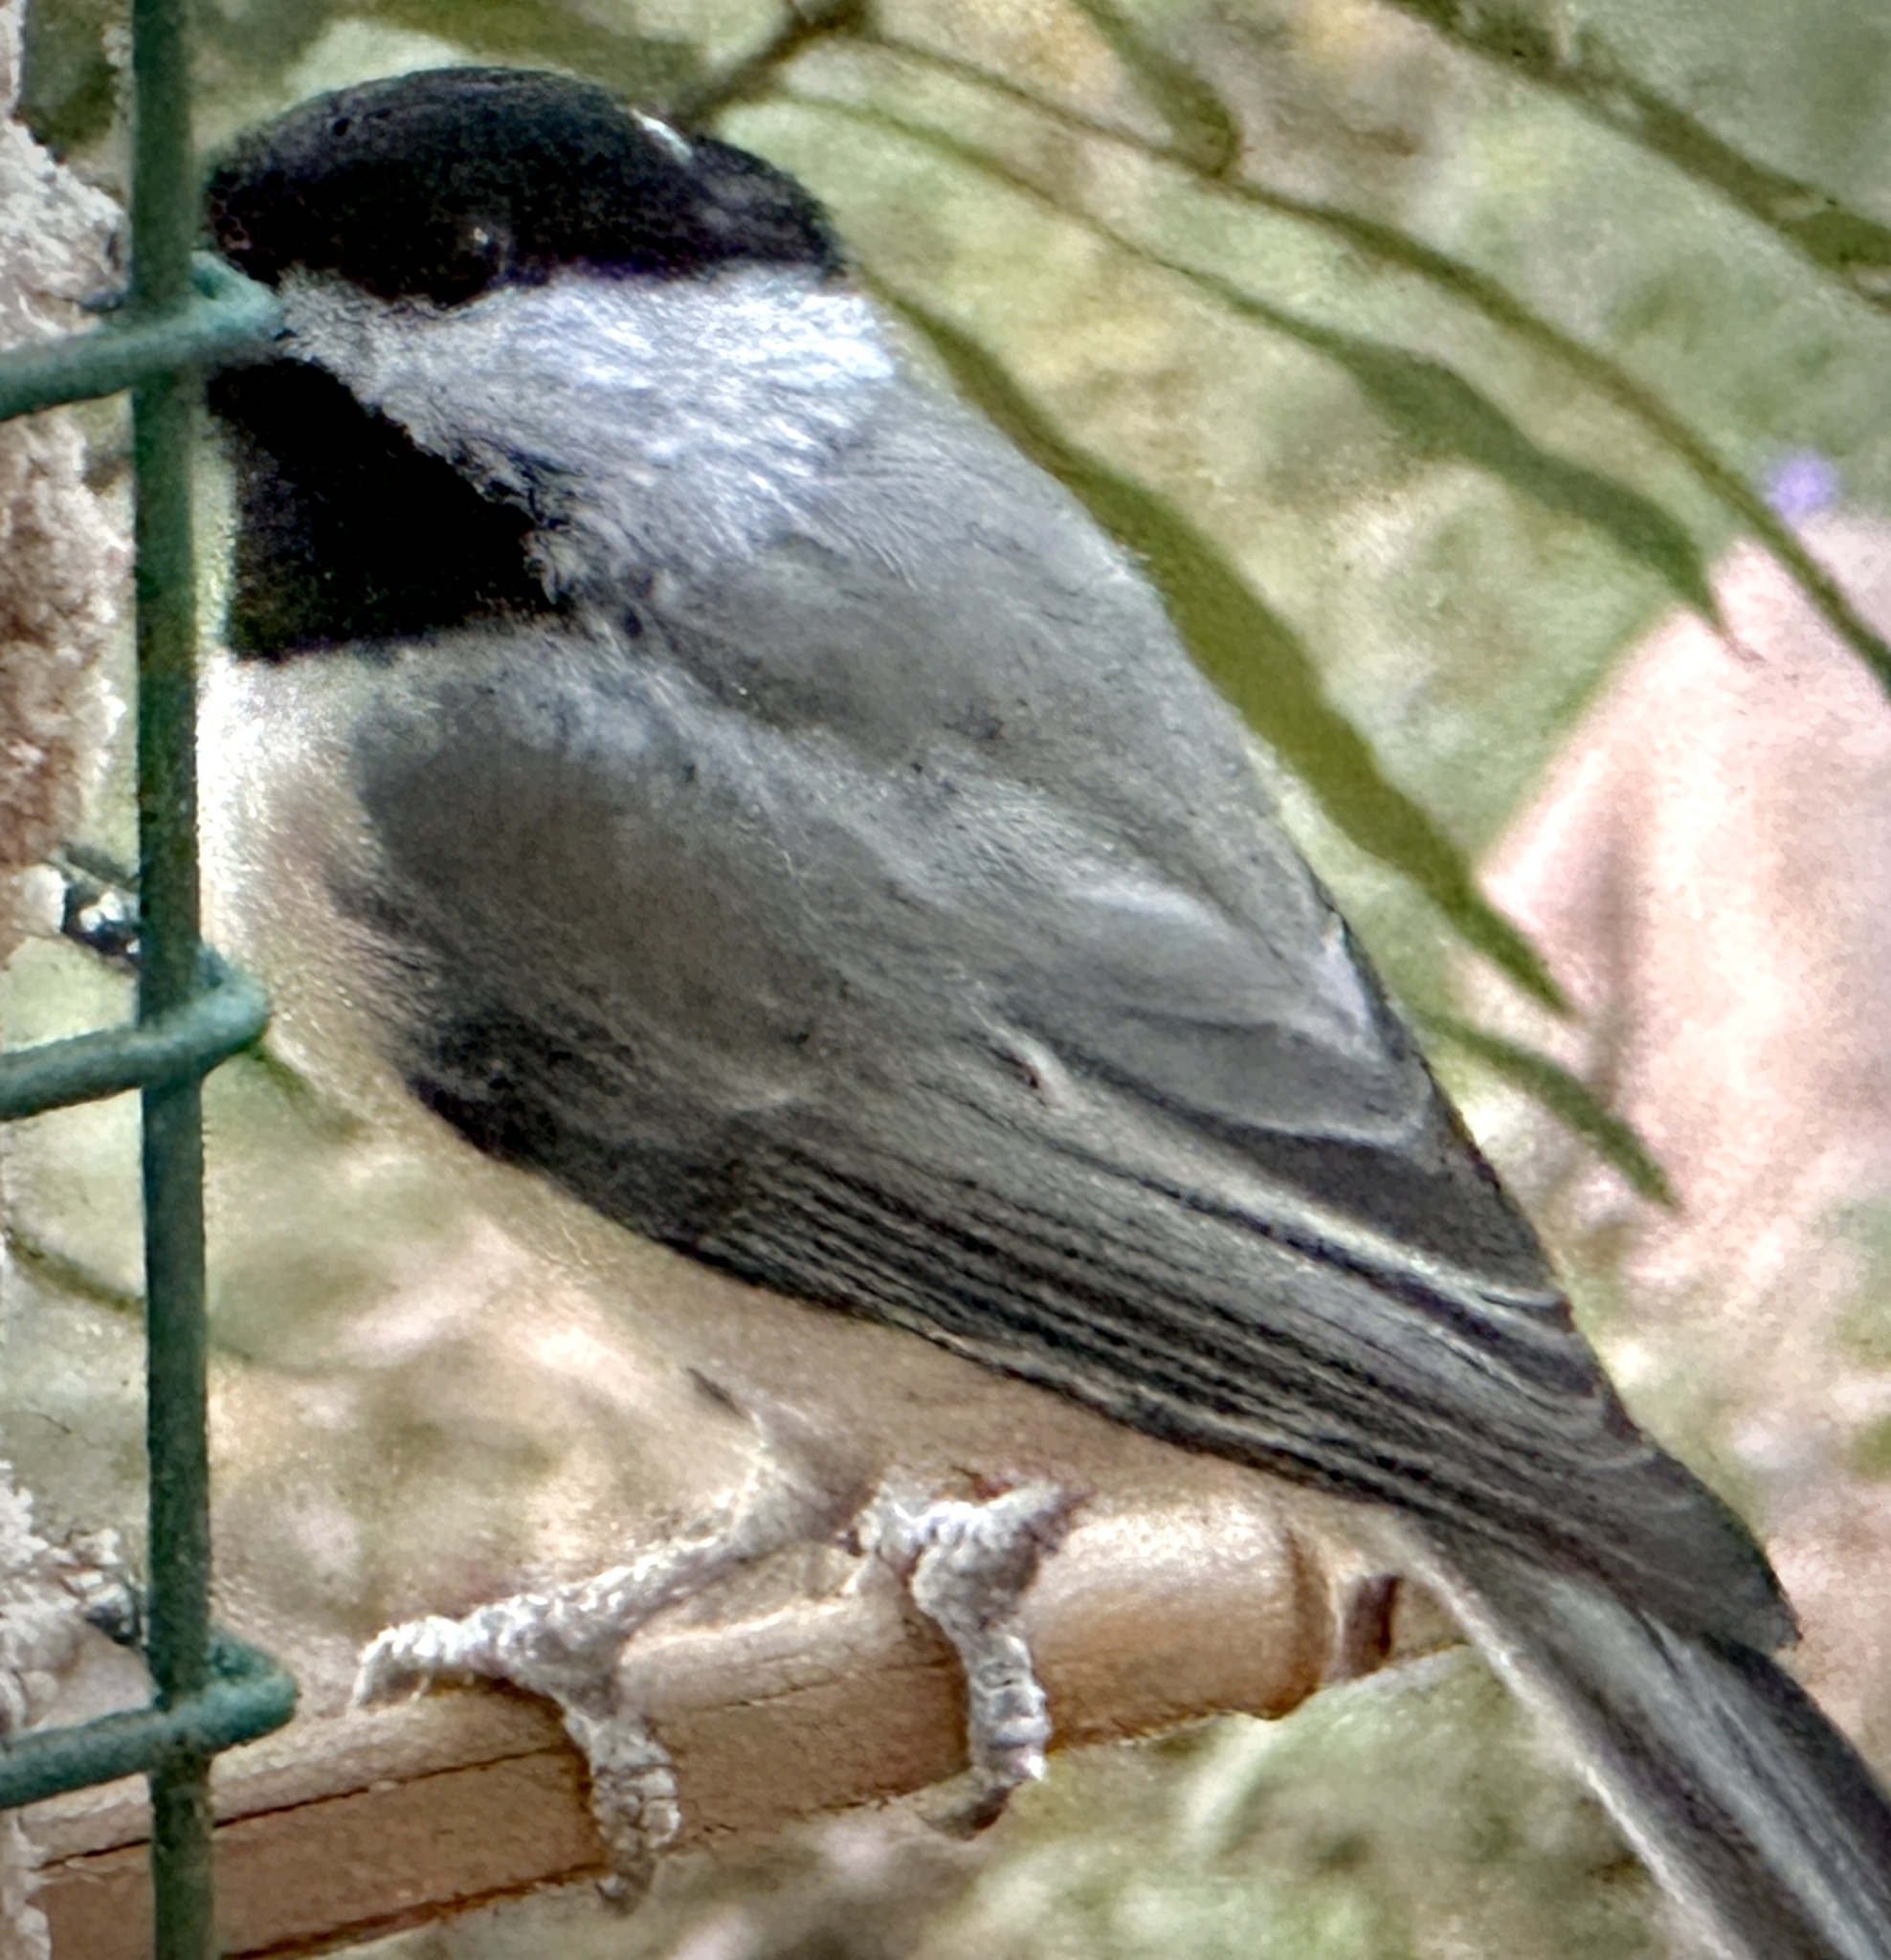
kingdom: Animalia
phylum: Chordata
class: Aves
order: Passeriformes
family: Paridae
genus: Poecile
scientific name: Poecile carolinensis
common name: Carolina chickadee
